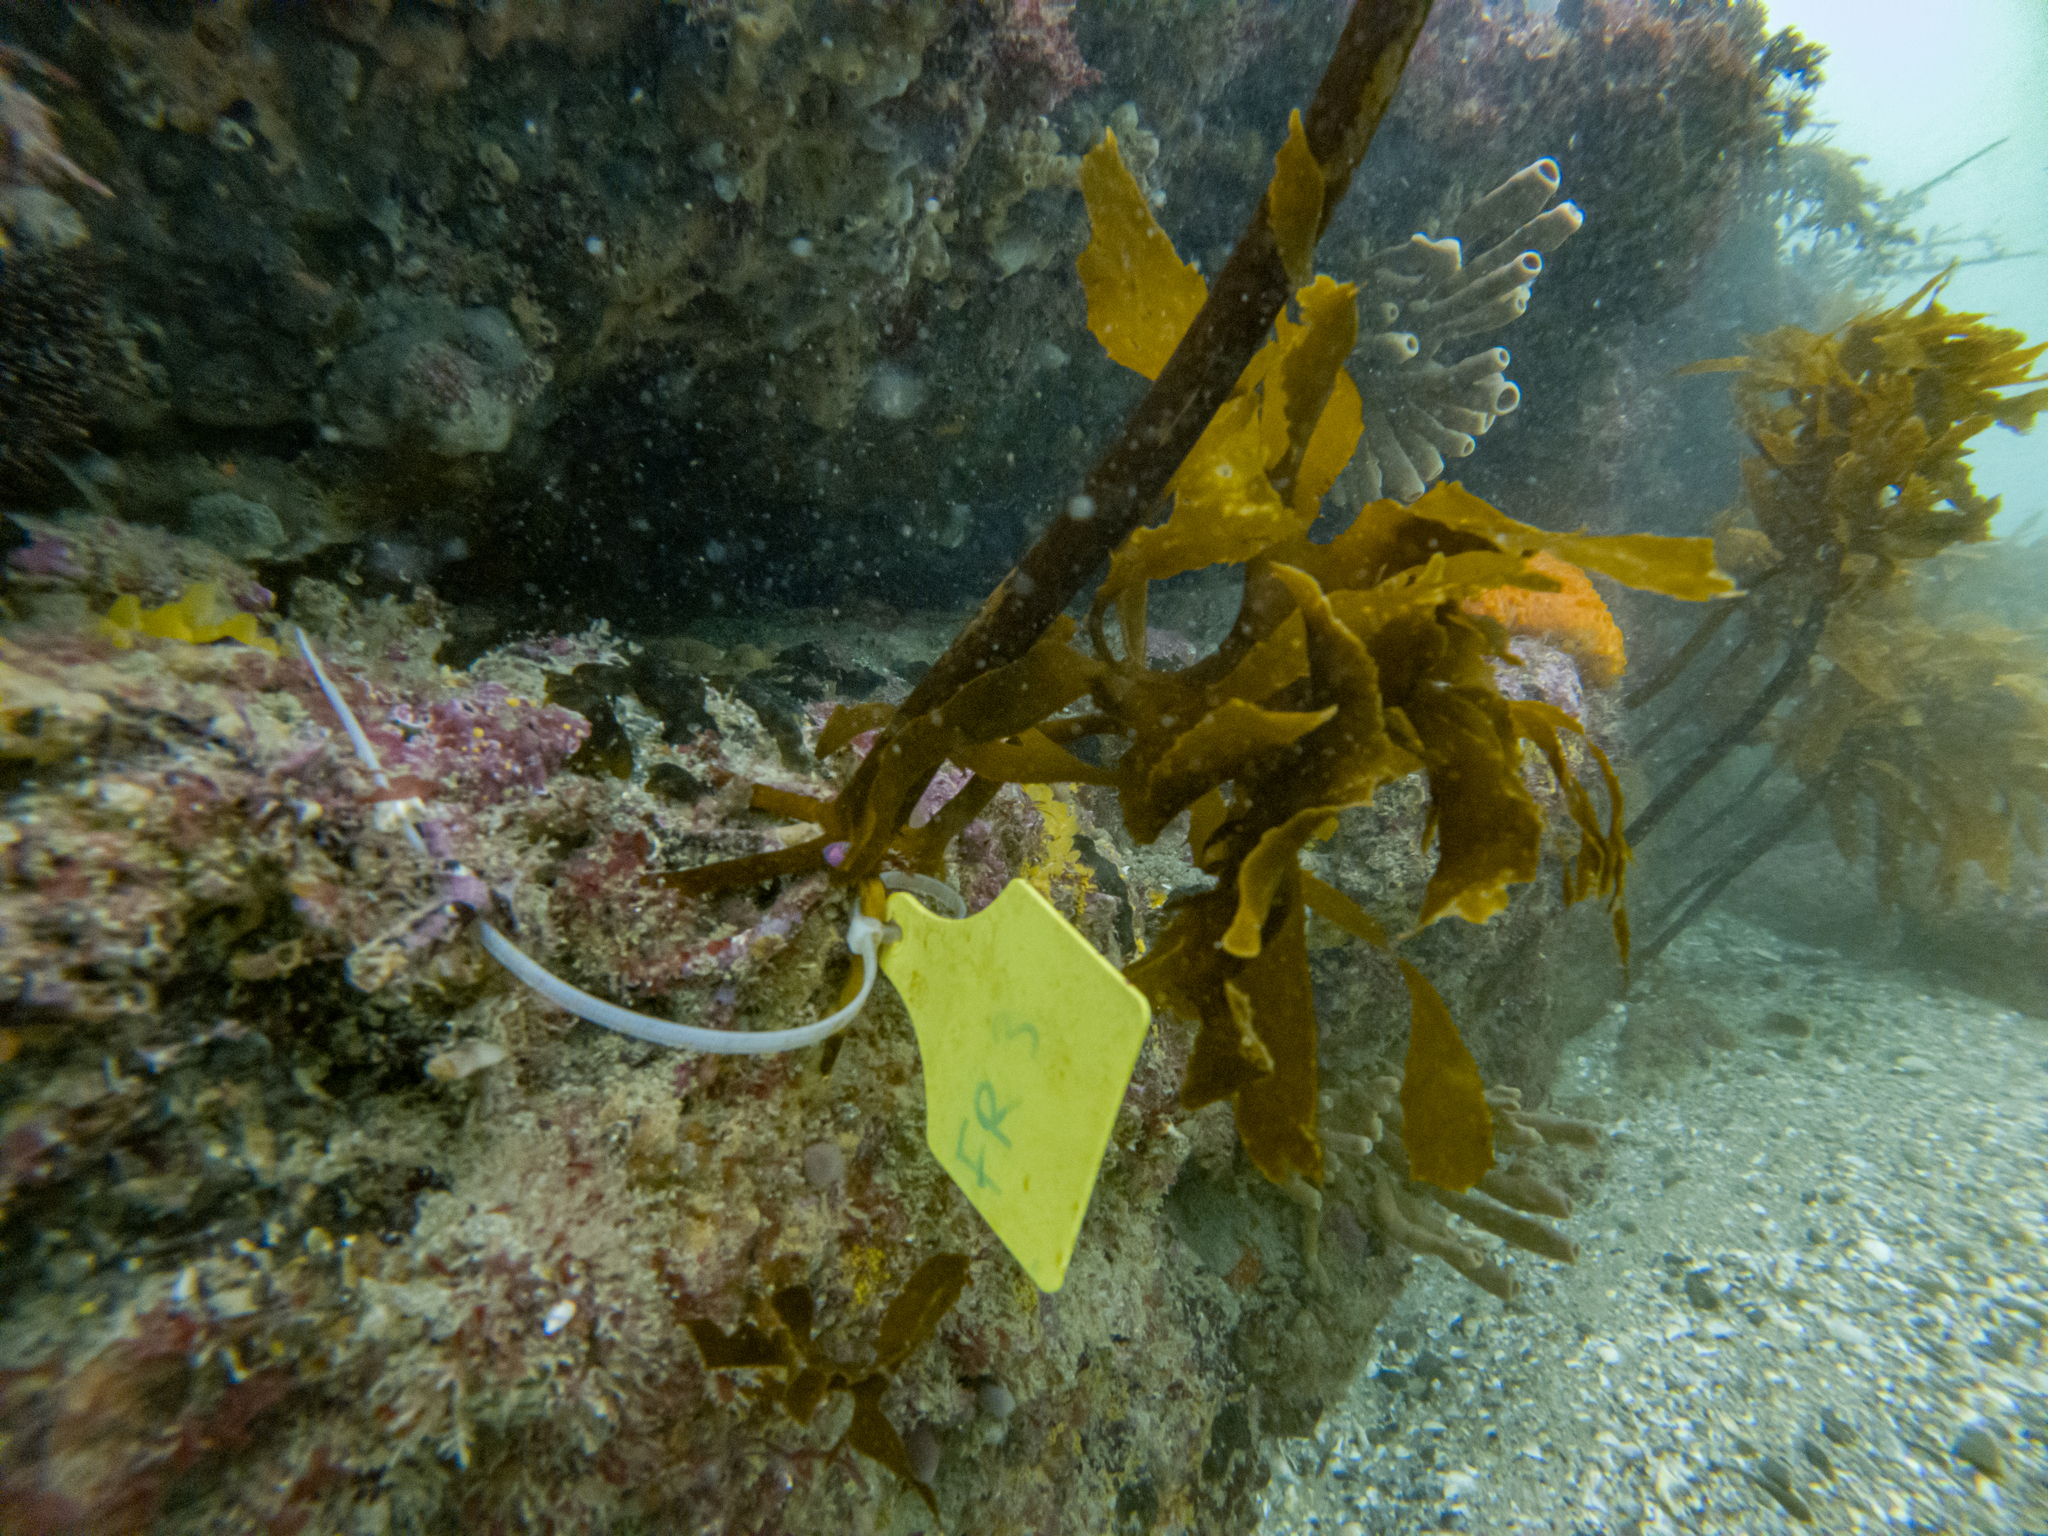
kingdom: Chromista
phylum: Ochrophyta
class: Phaeophyceae
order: Laminariales
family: Lessoniaceae
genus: Ecklonia
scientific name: Ecklonia radiata
